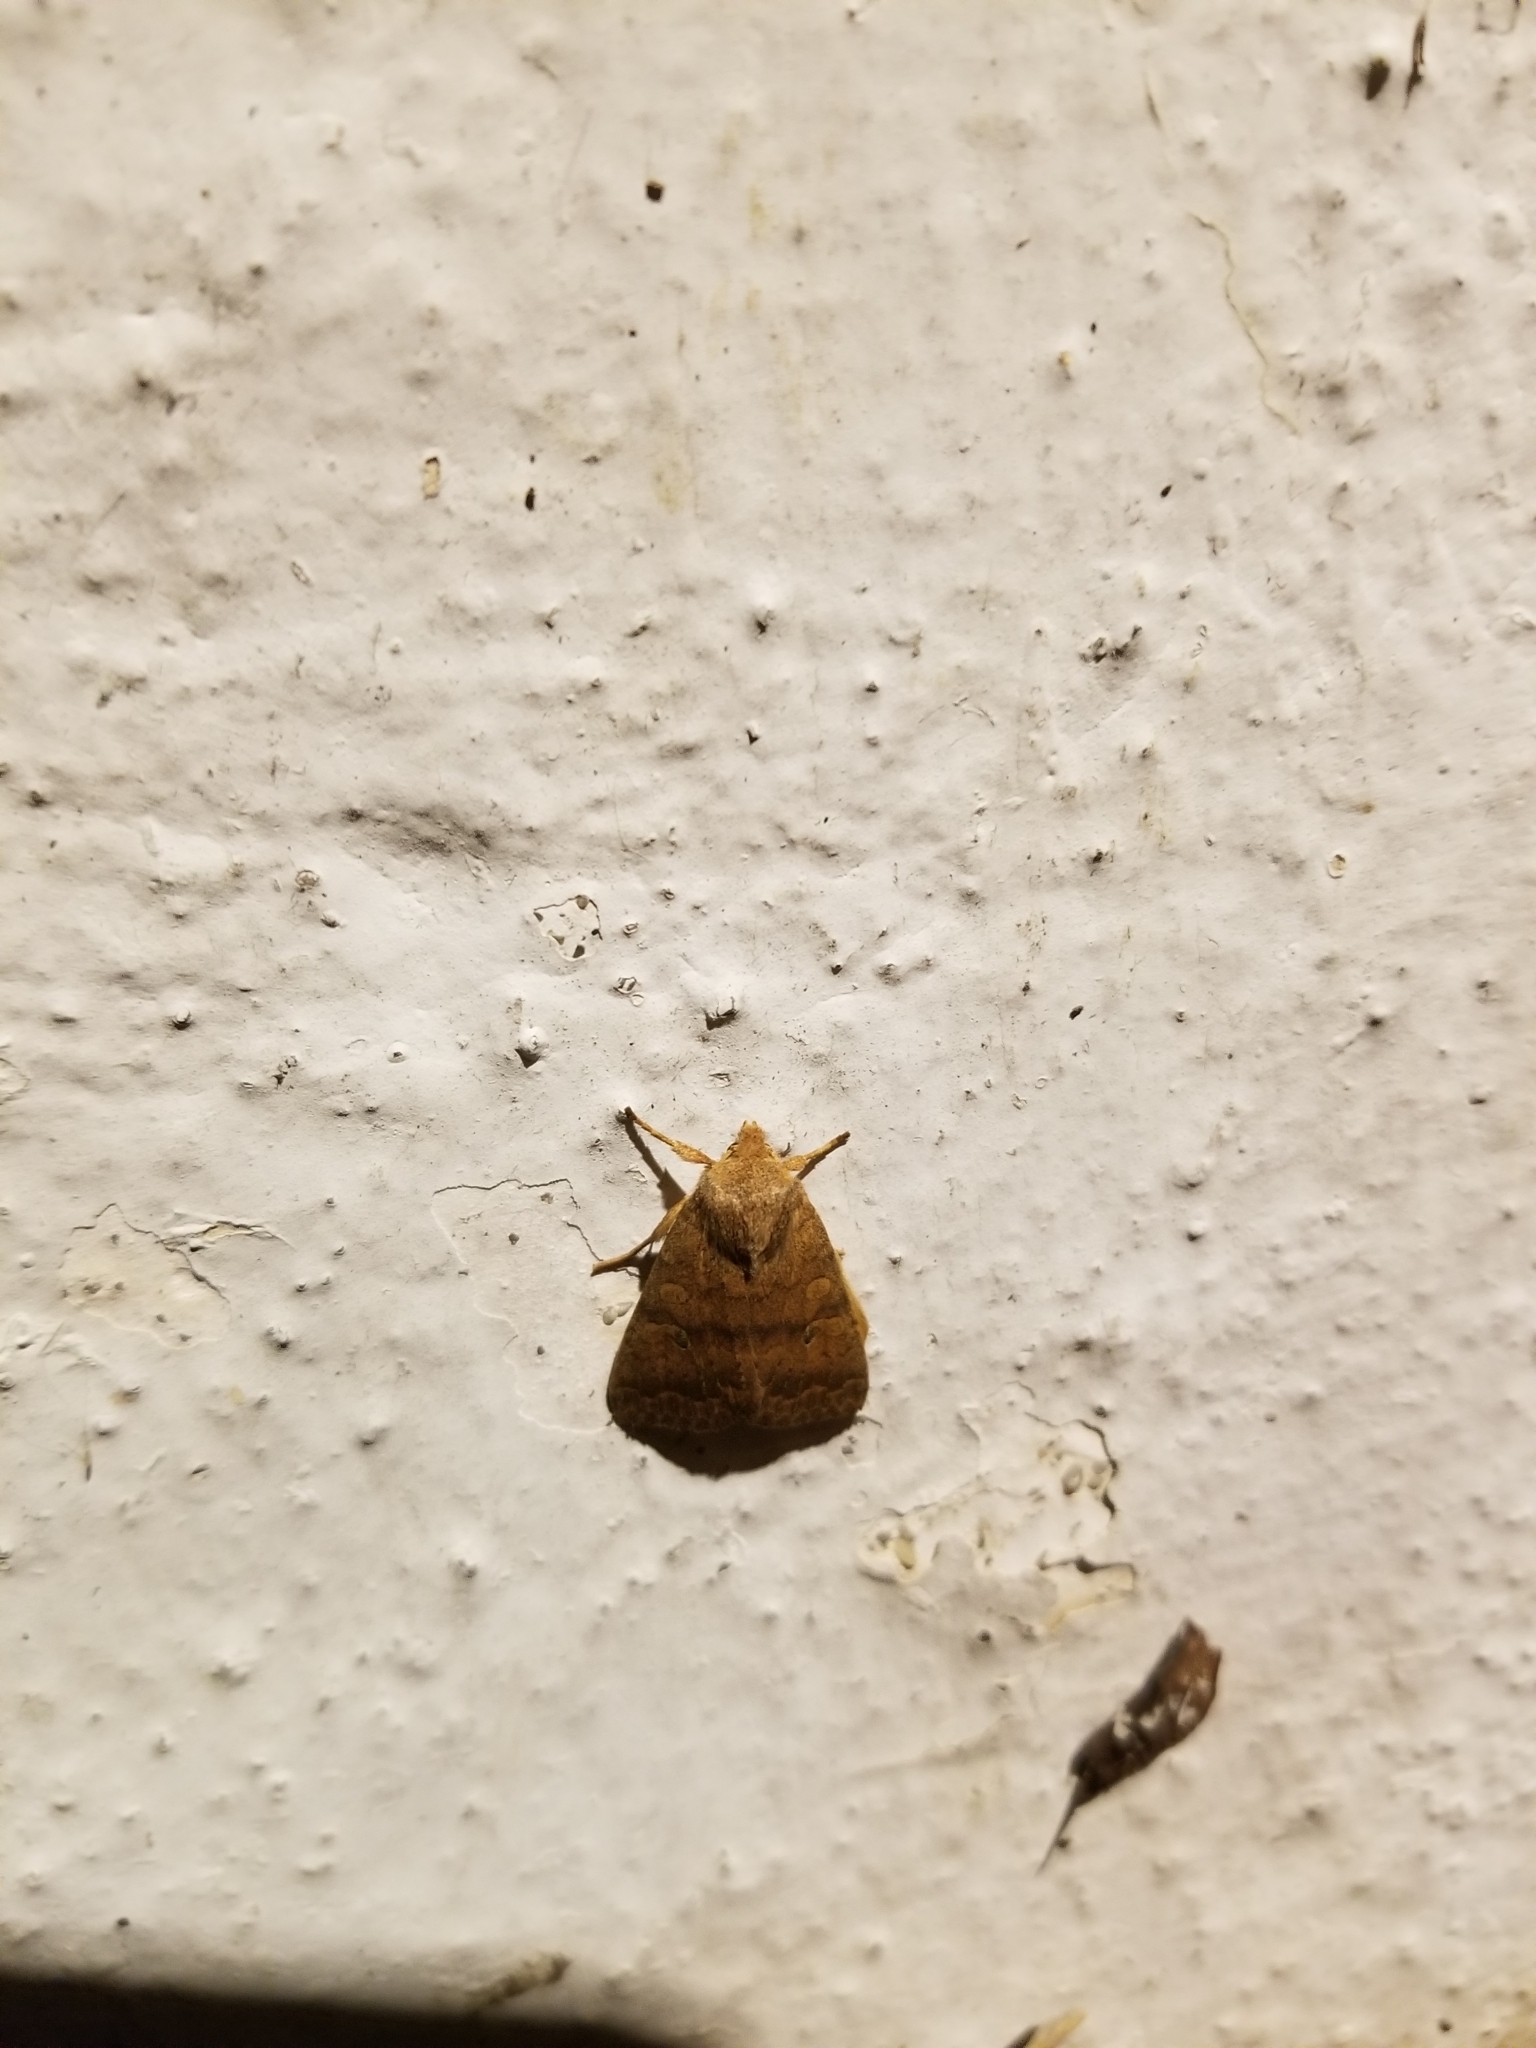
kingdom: Animalia
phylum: Arthropoda
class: Insecta
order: Lepidoptera
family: Noctuidae
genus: Agrochola
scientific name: Agrochola bicolorago
